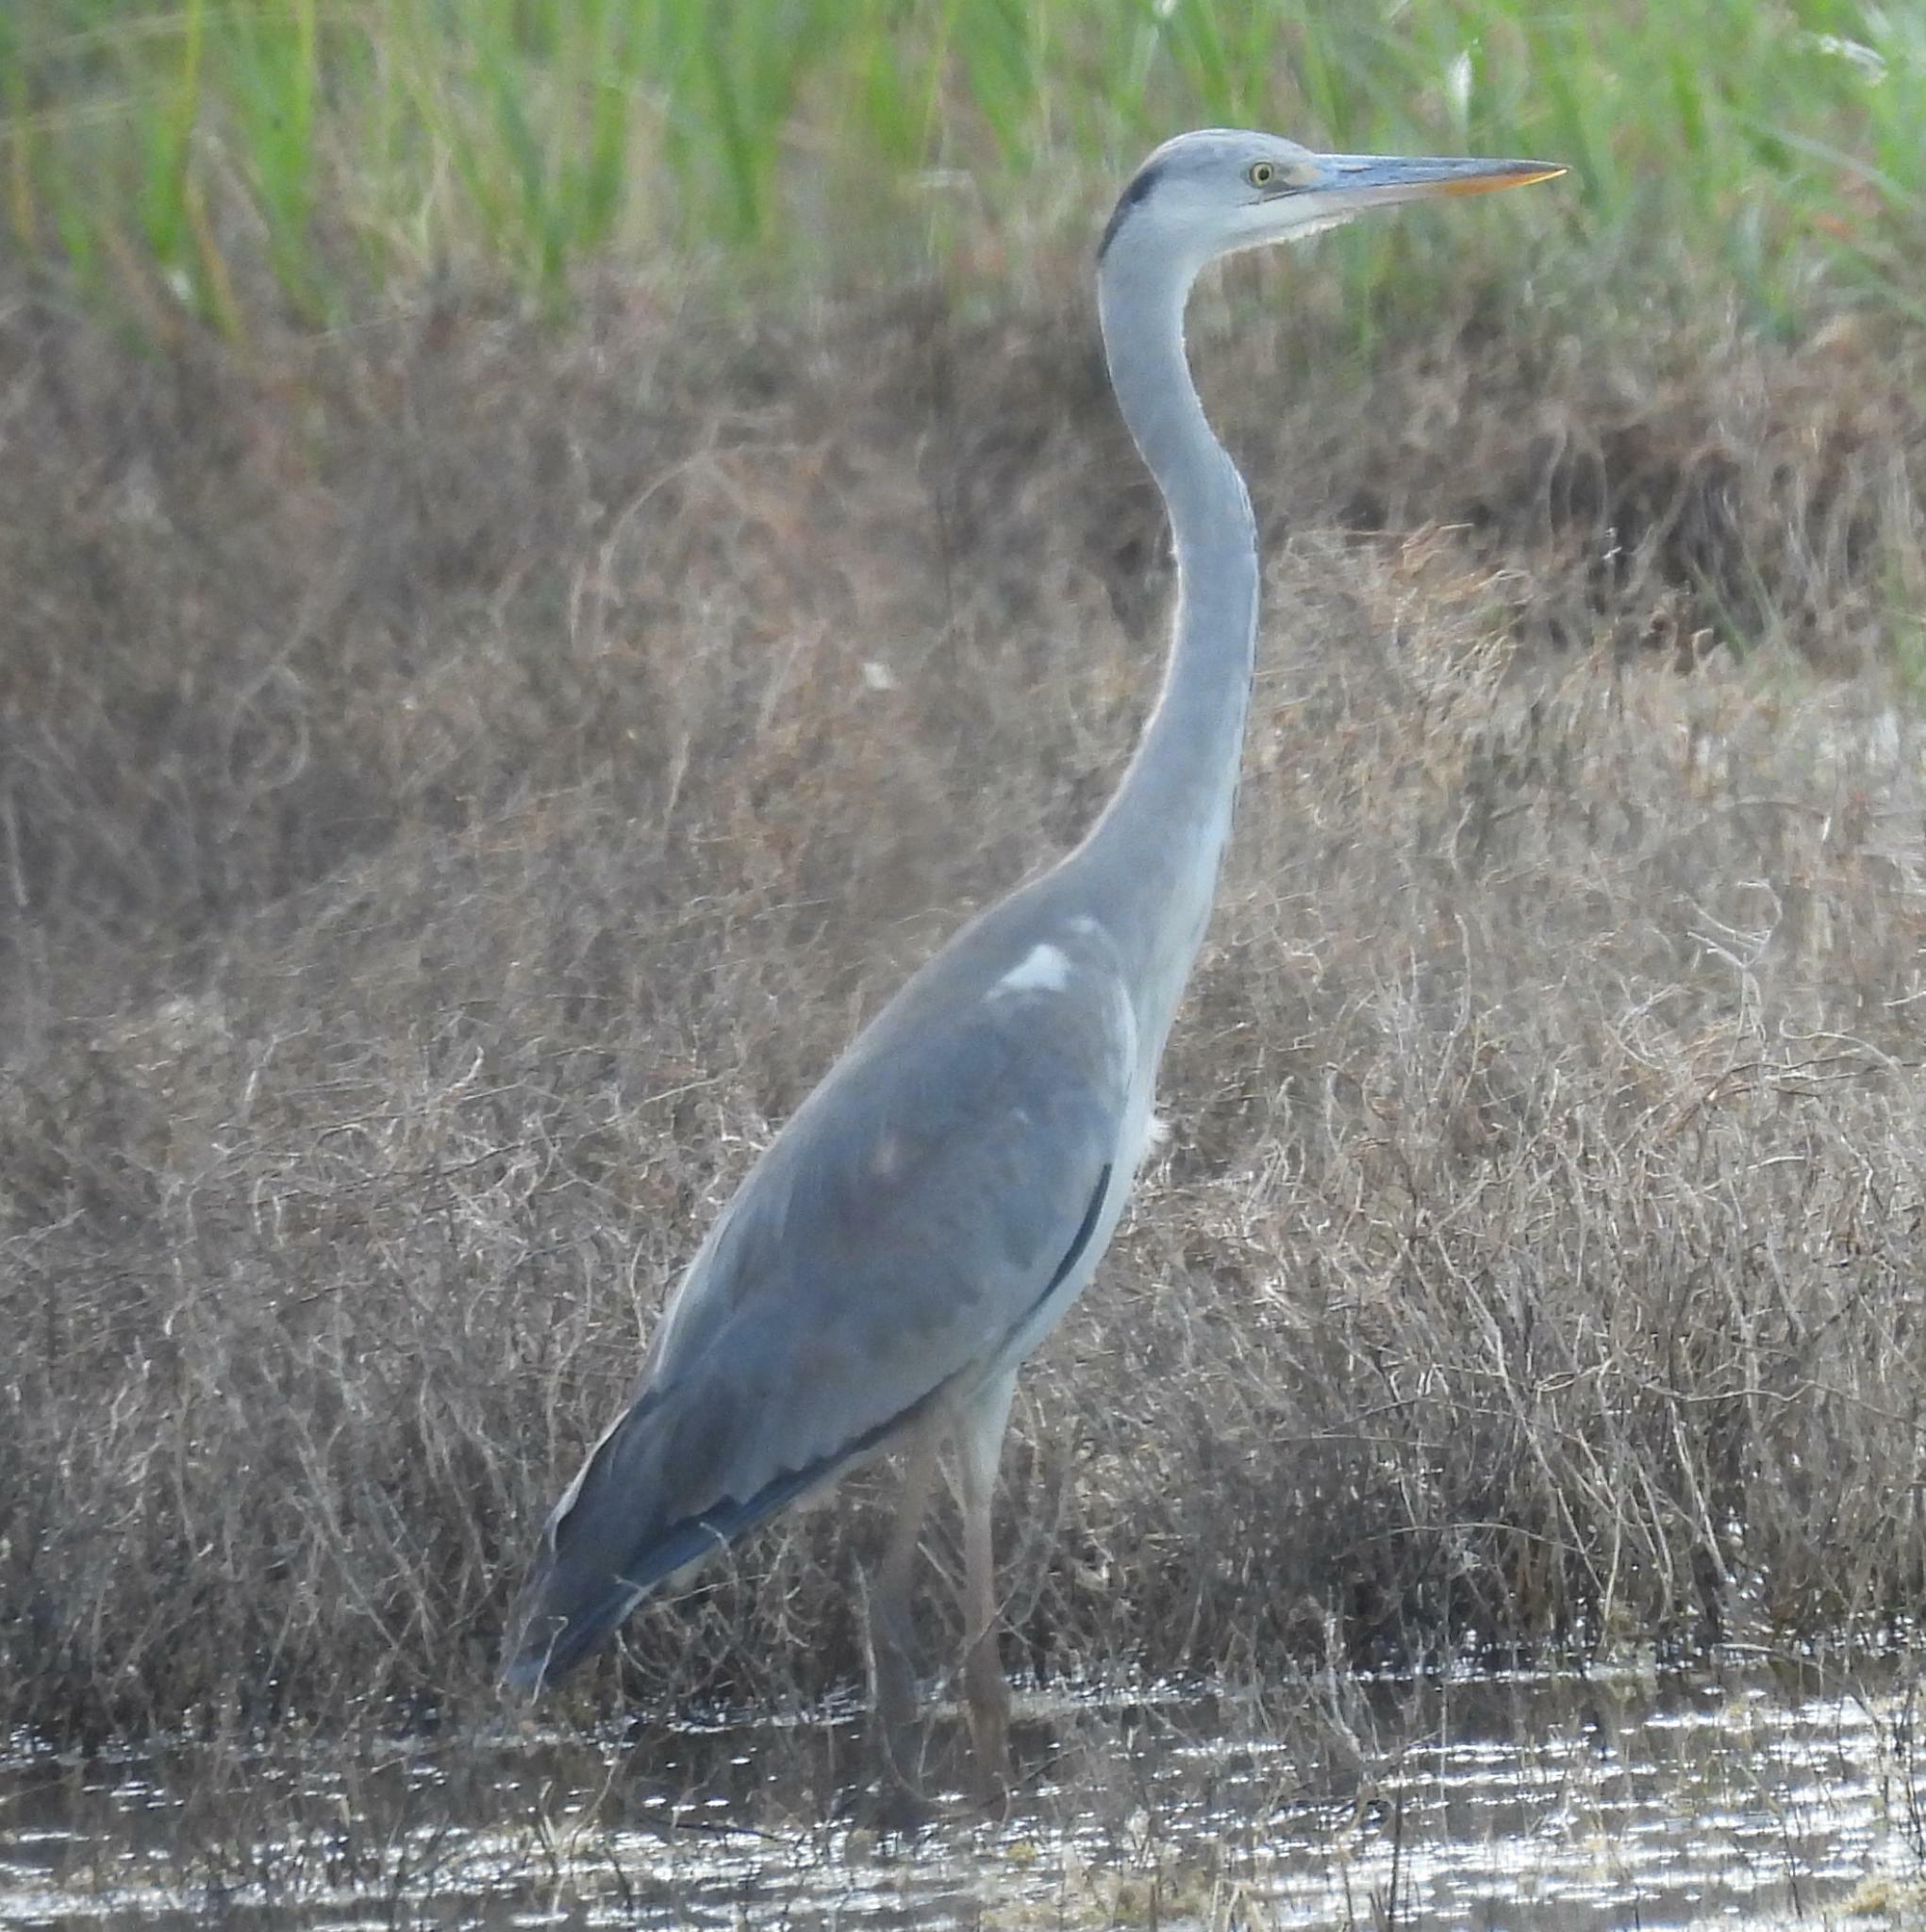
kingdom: Animalia
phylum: Chordata
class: Aves
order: Pelecaniformes
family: Ardeidae
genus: Ardea
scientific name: Ardea cinerea
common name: Grey heron
